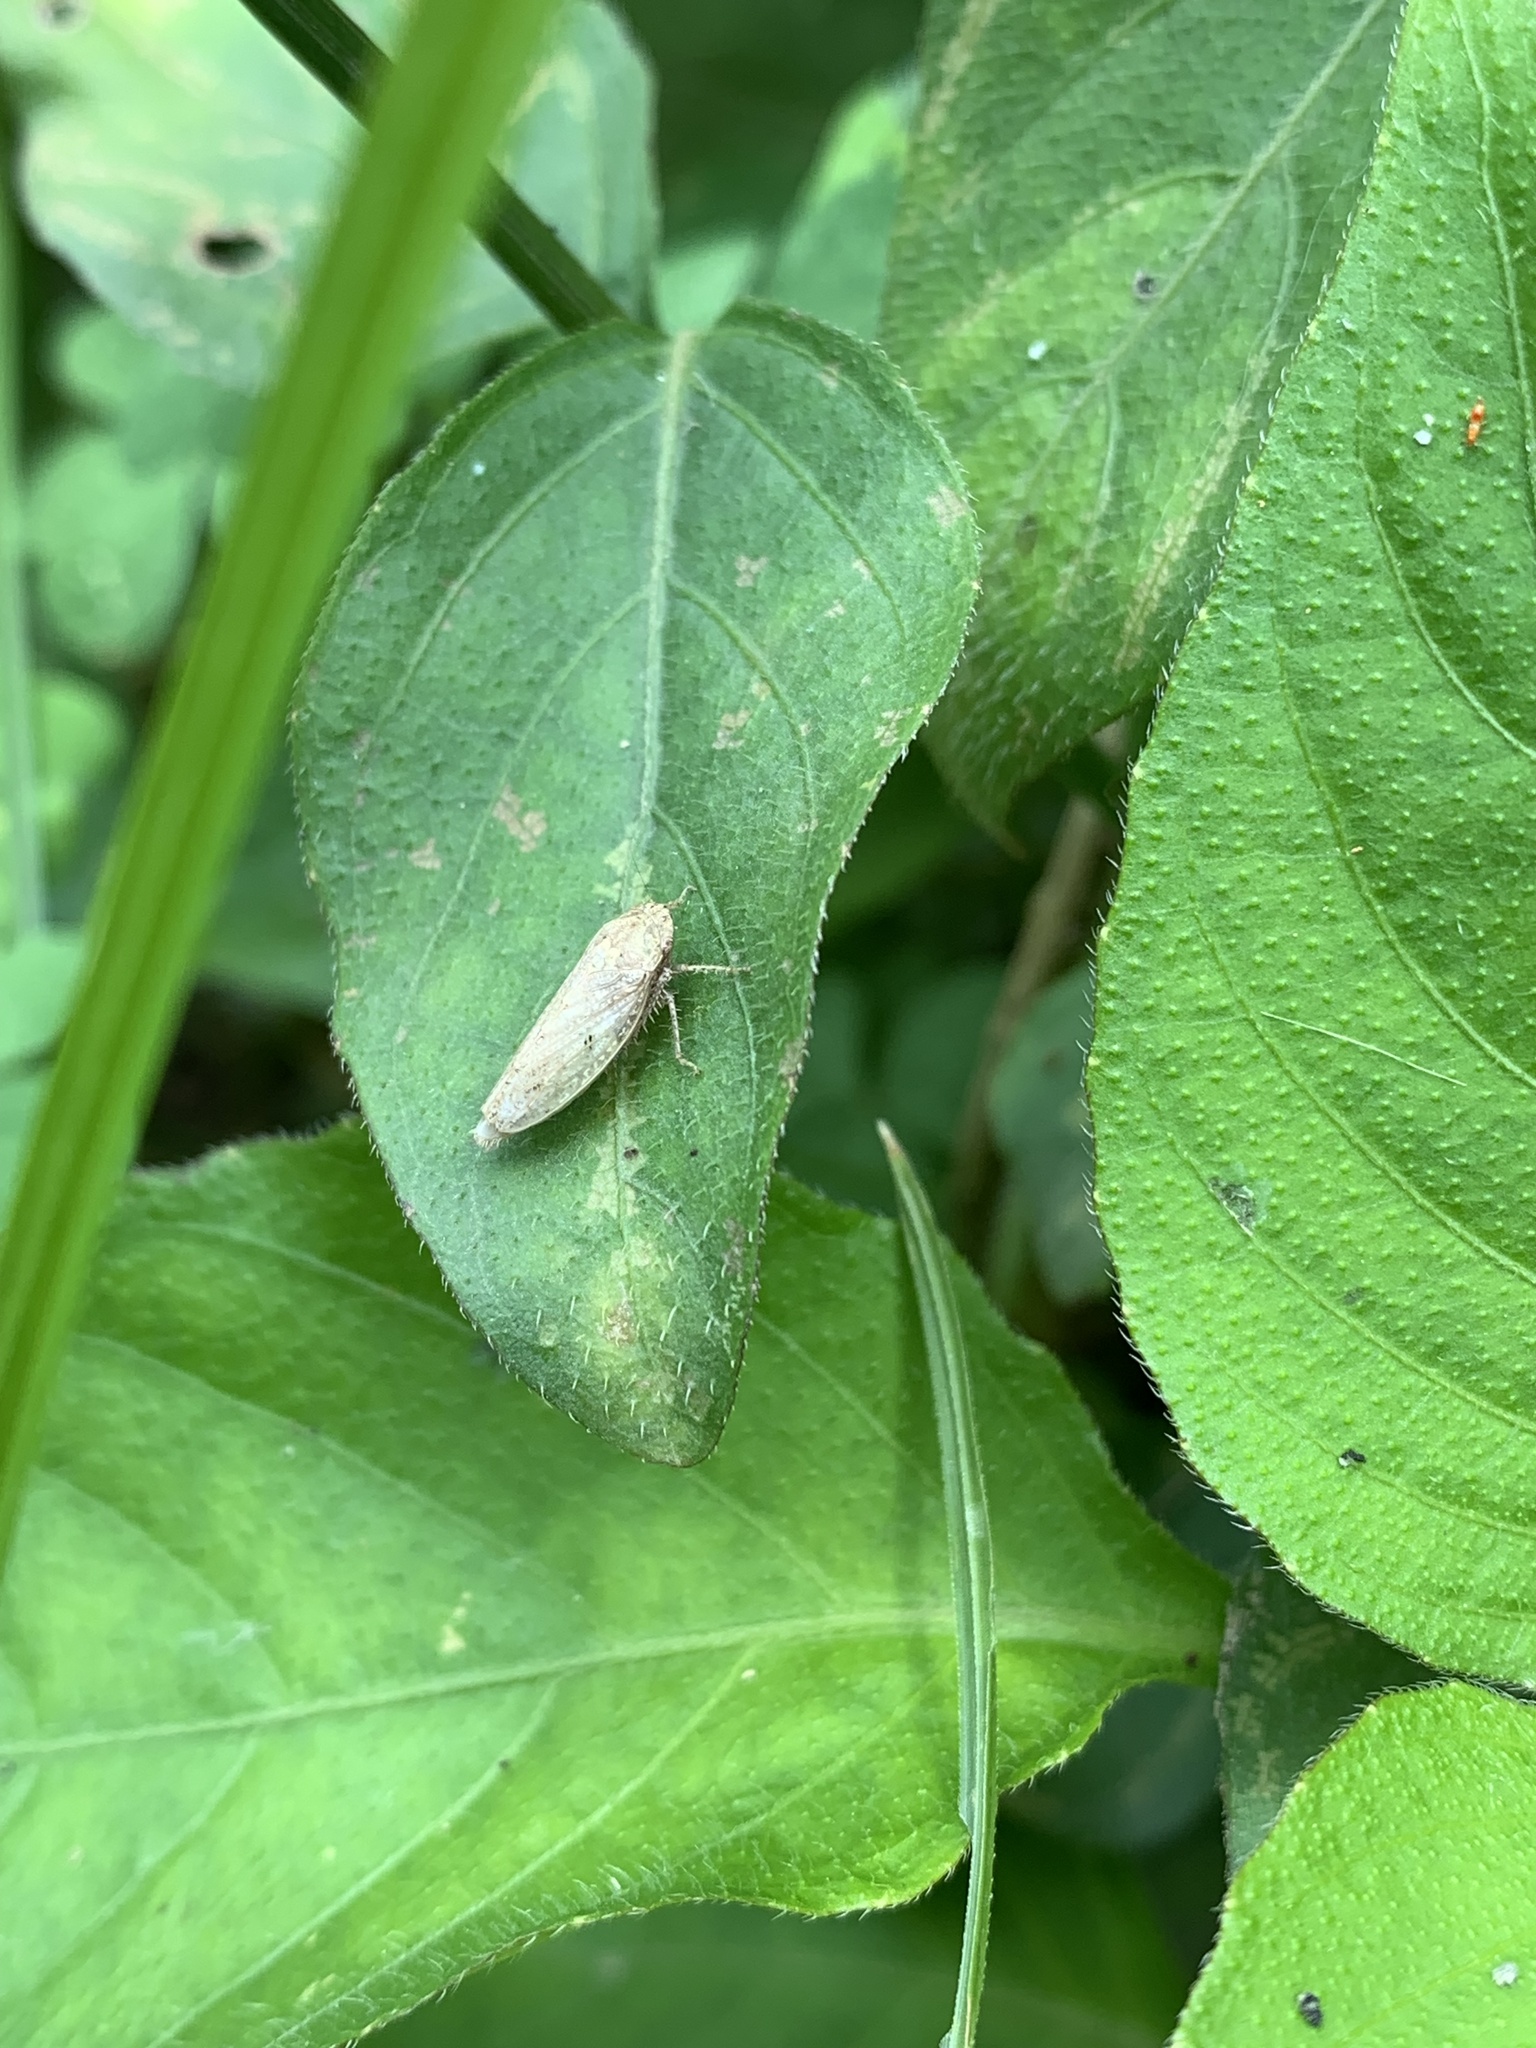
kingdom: Animalia
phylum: Arthropoda
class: Insecta
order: Hemiptera
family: Cicadellidae
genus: Curtara
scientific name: Curtara insularis
